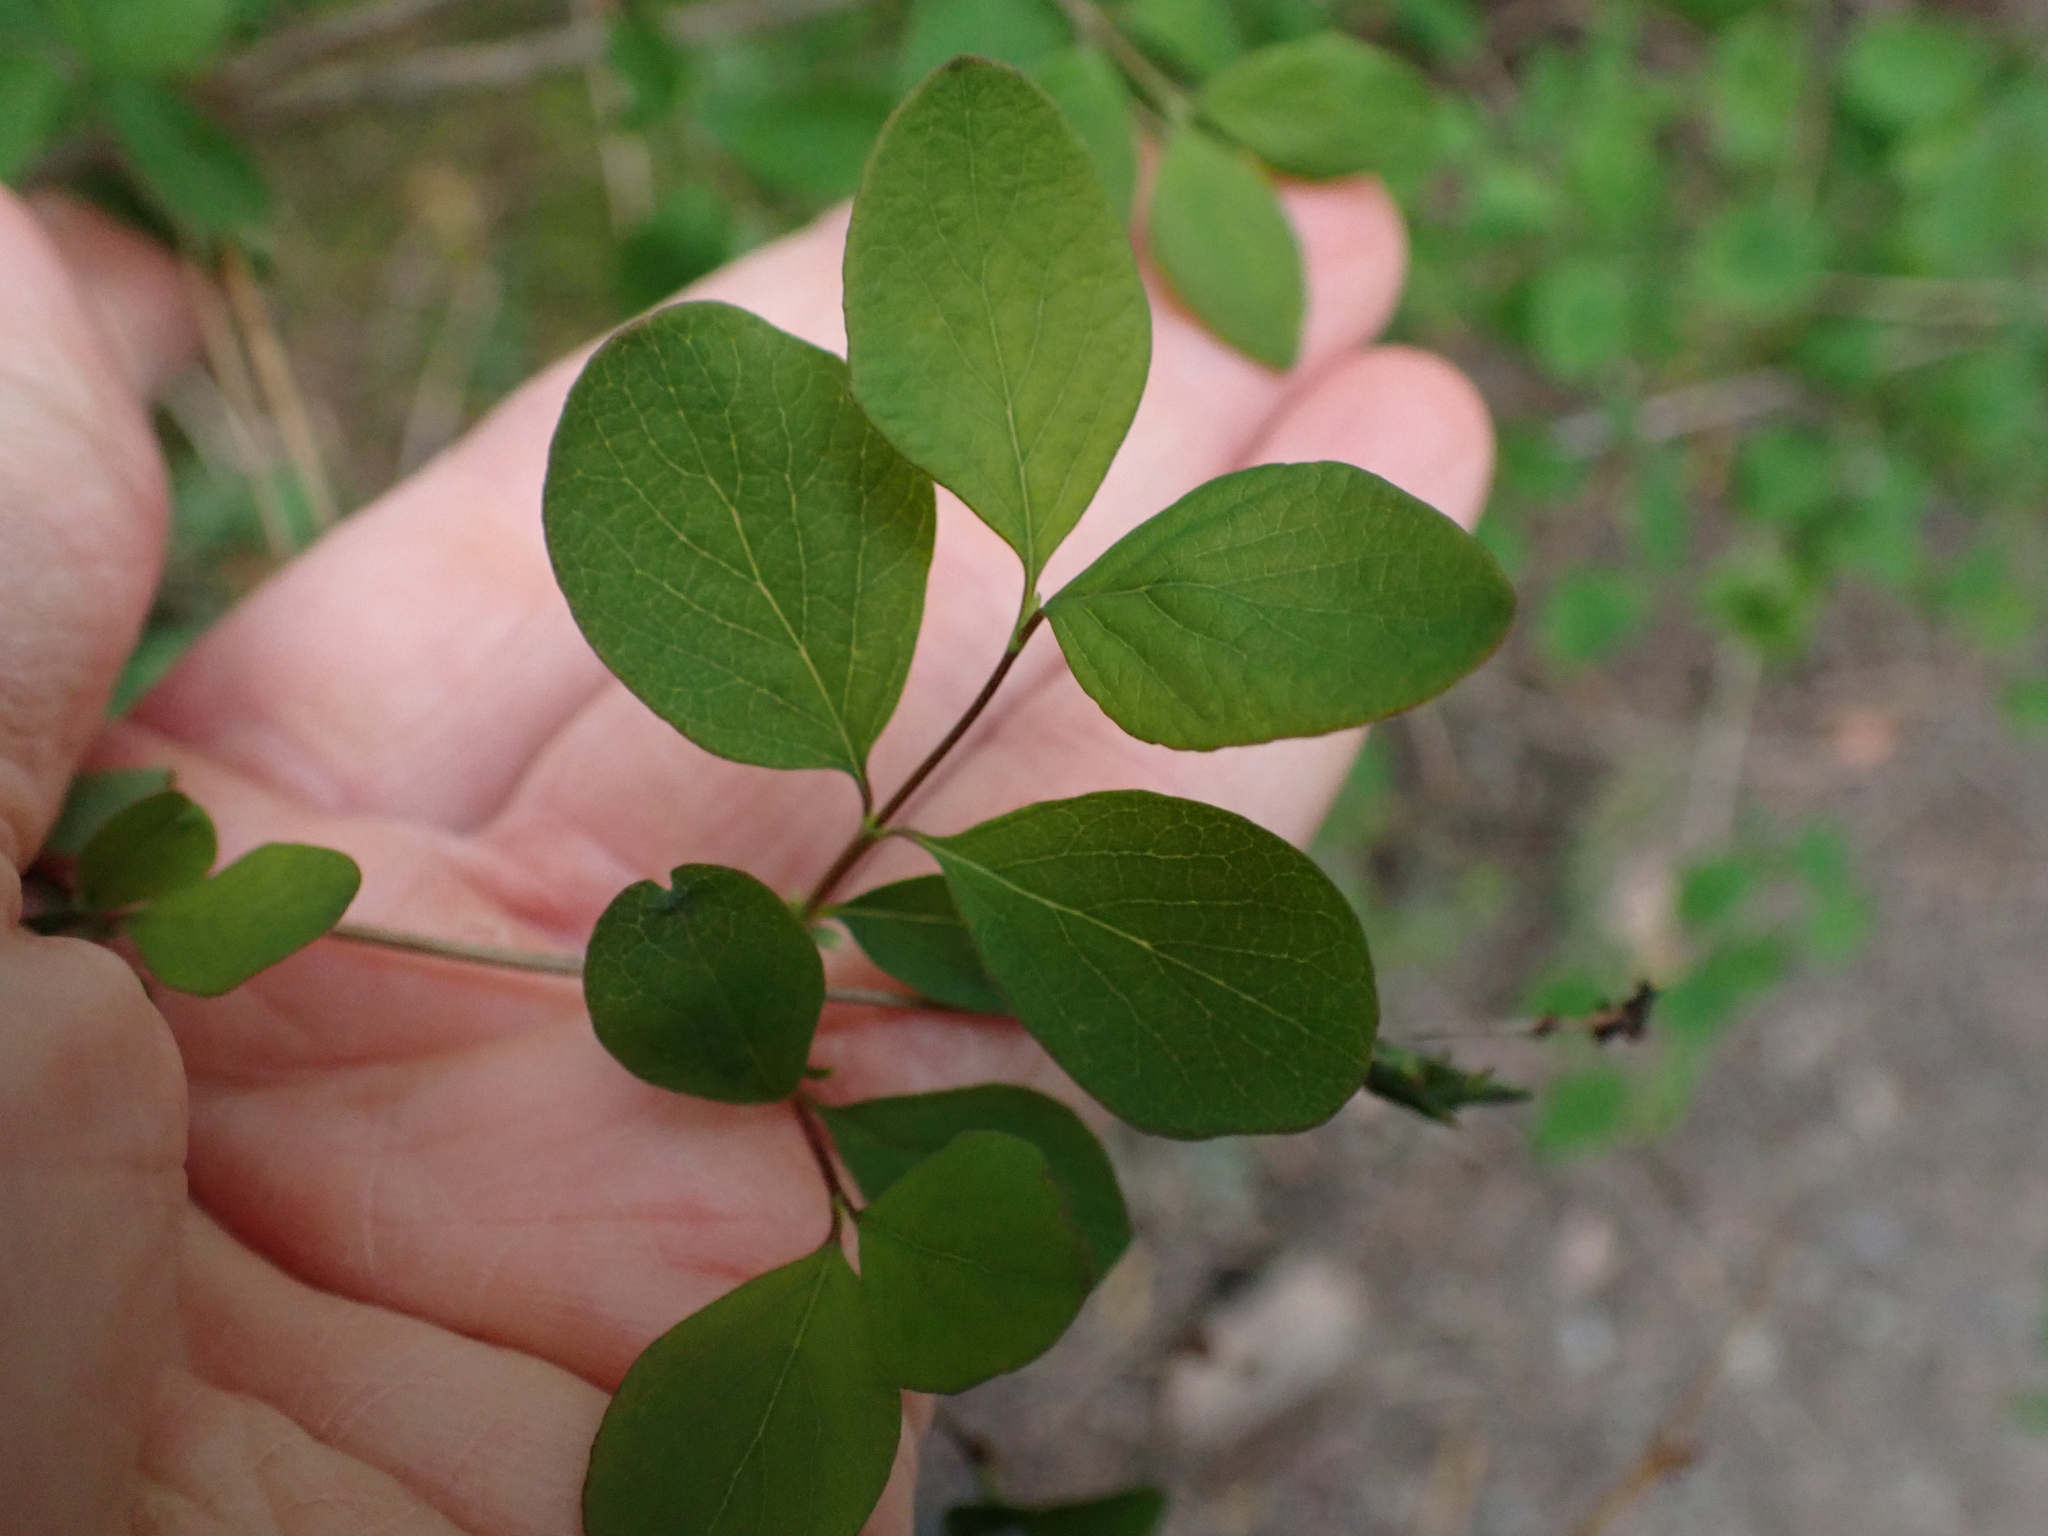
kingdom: Plantae
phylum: Tracheophyta
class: Magnoliopsida
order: Dipsacales
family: Caprifoliaceae
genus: Symphoricarpos
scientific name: Symphoricarpos albus
